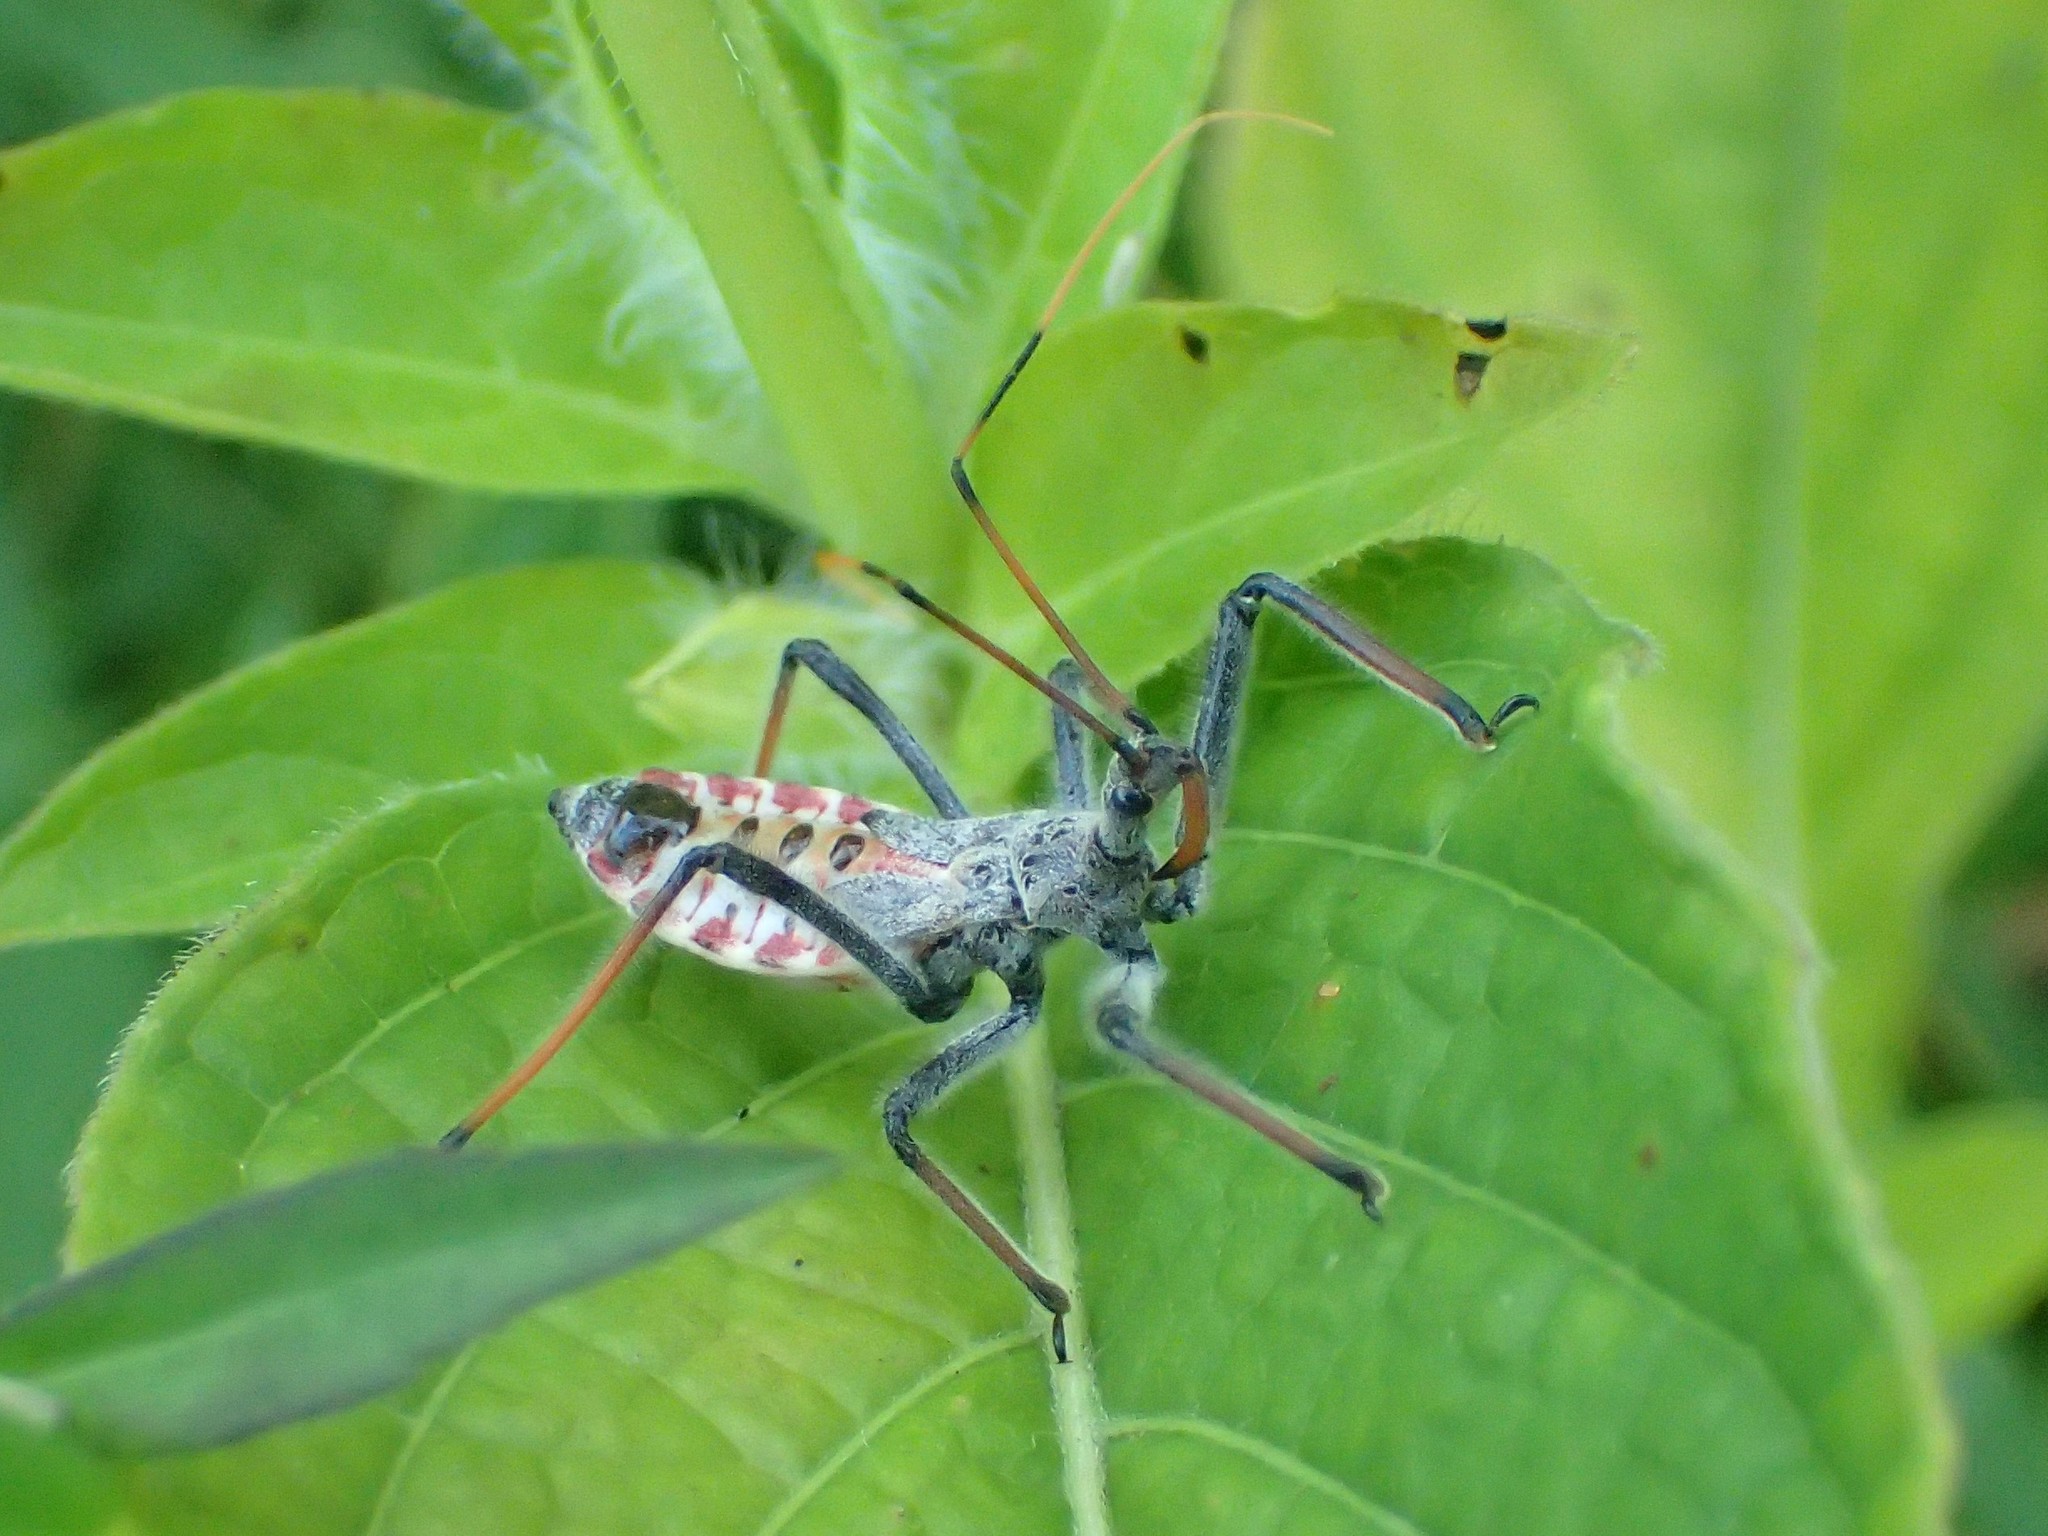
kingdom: Animalia
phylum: Arthropoda
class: Insecta
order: Hemiptera
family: Reduviidae
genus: Arilus
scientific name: Arilus cristatus
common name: North american wheel bug
